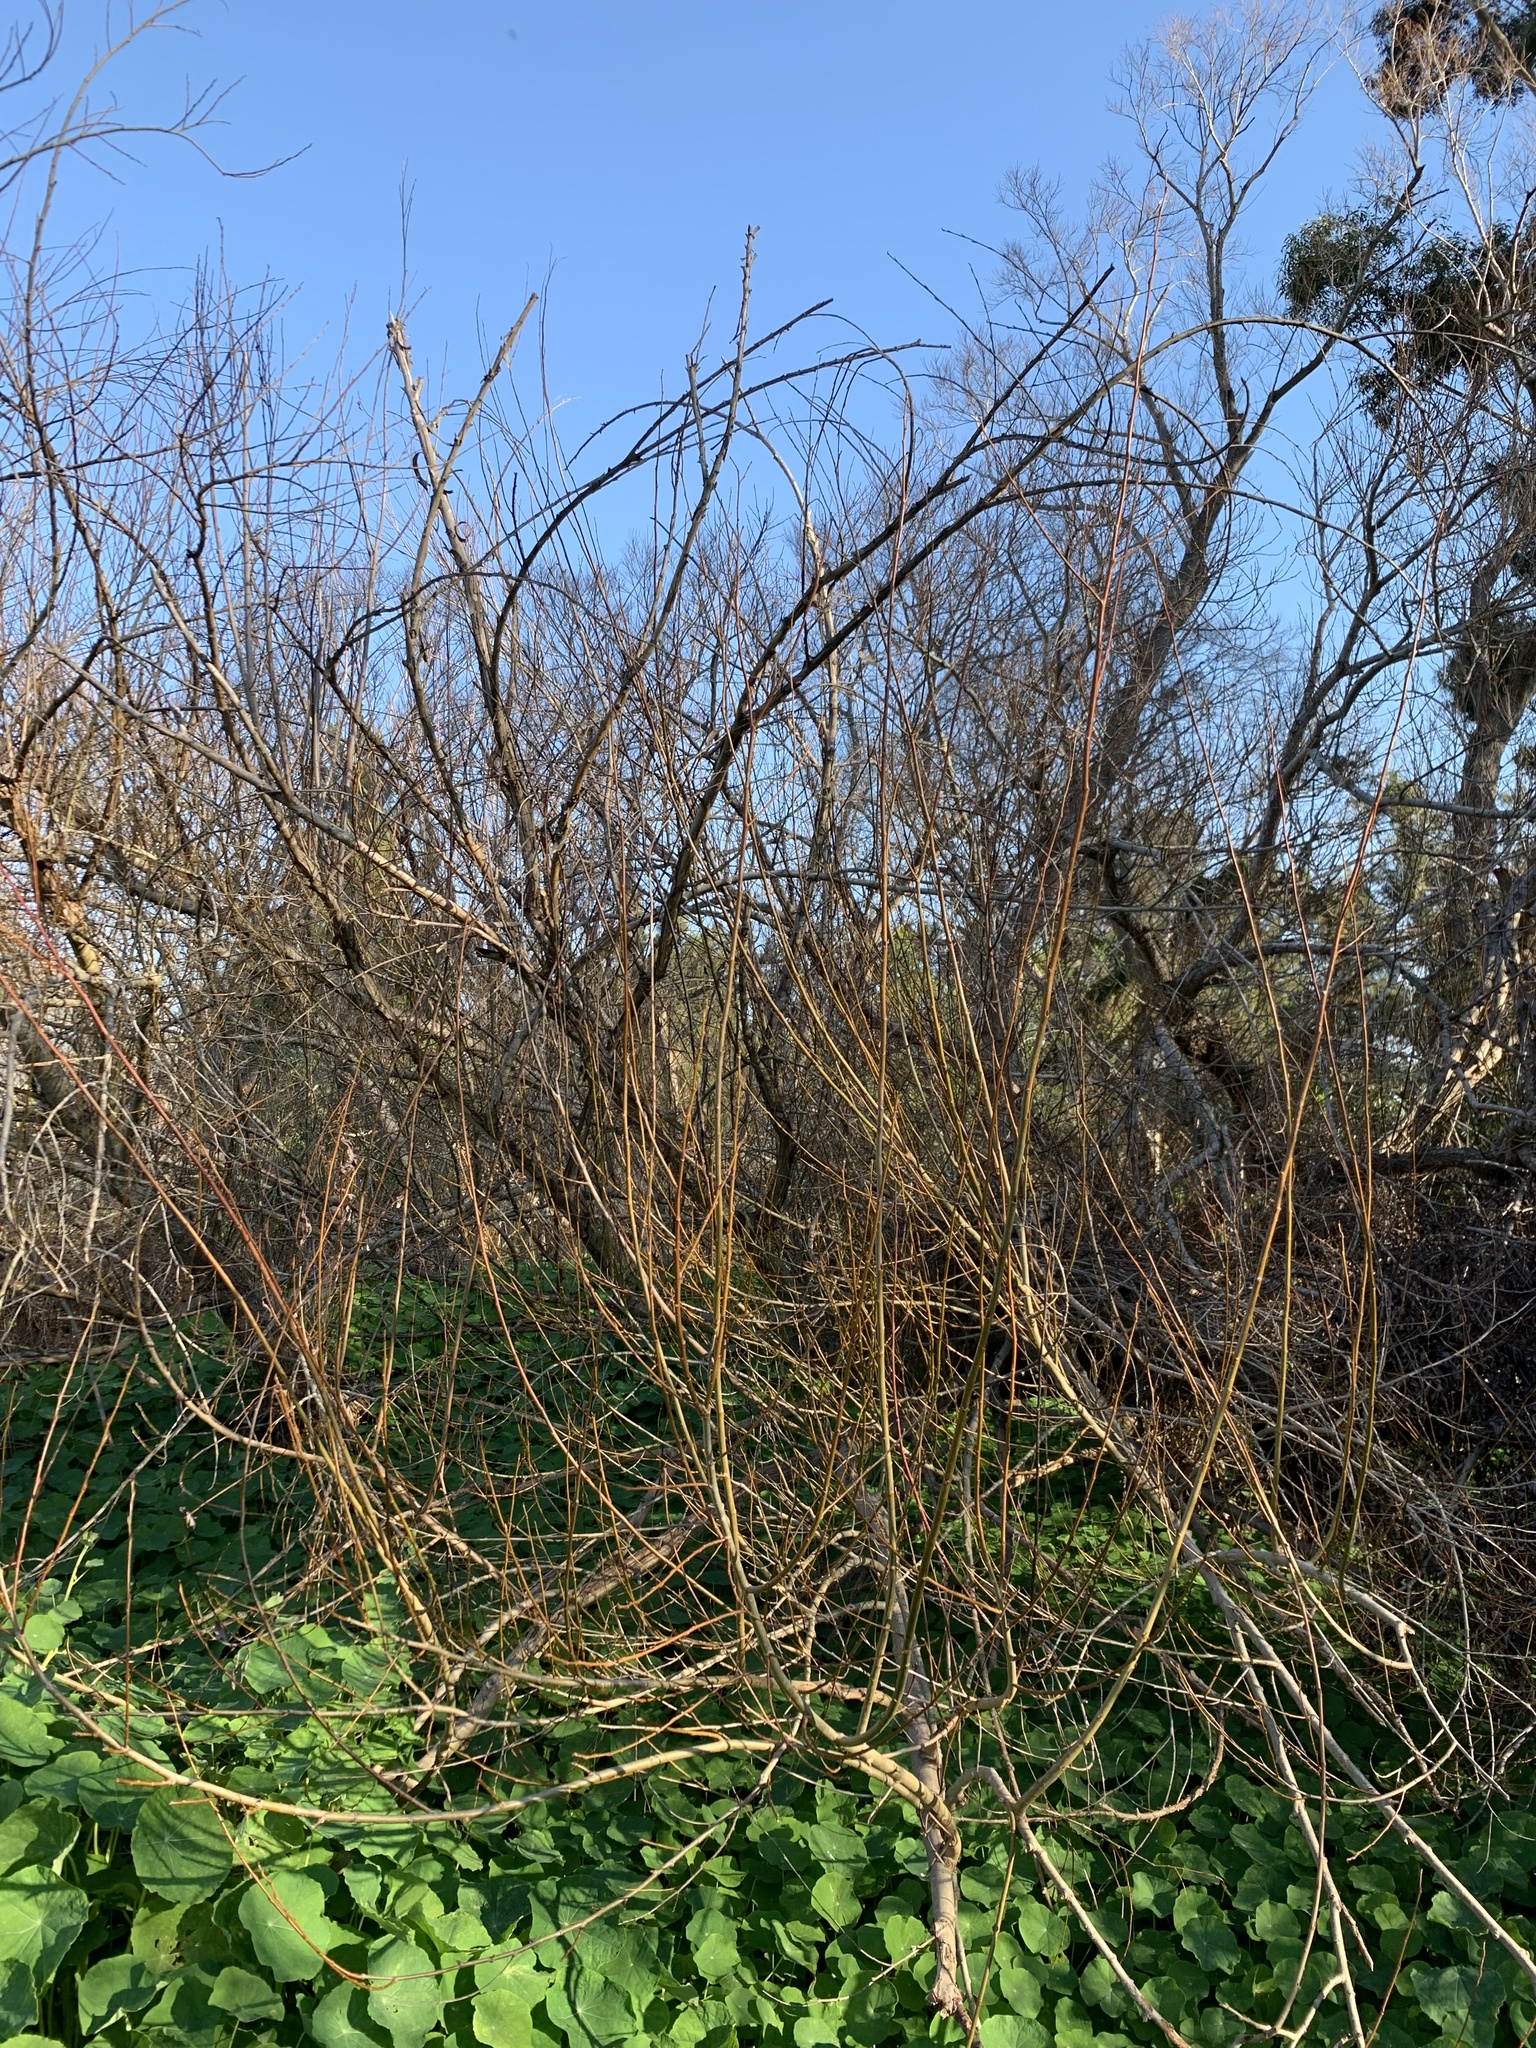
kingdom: Plantae
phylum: Tracheophyta
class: Magnoliopsida
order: Malpighiales
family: Salicaceae
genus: Salix
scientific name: Salix babylonica
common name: Weeping willow
